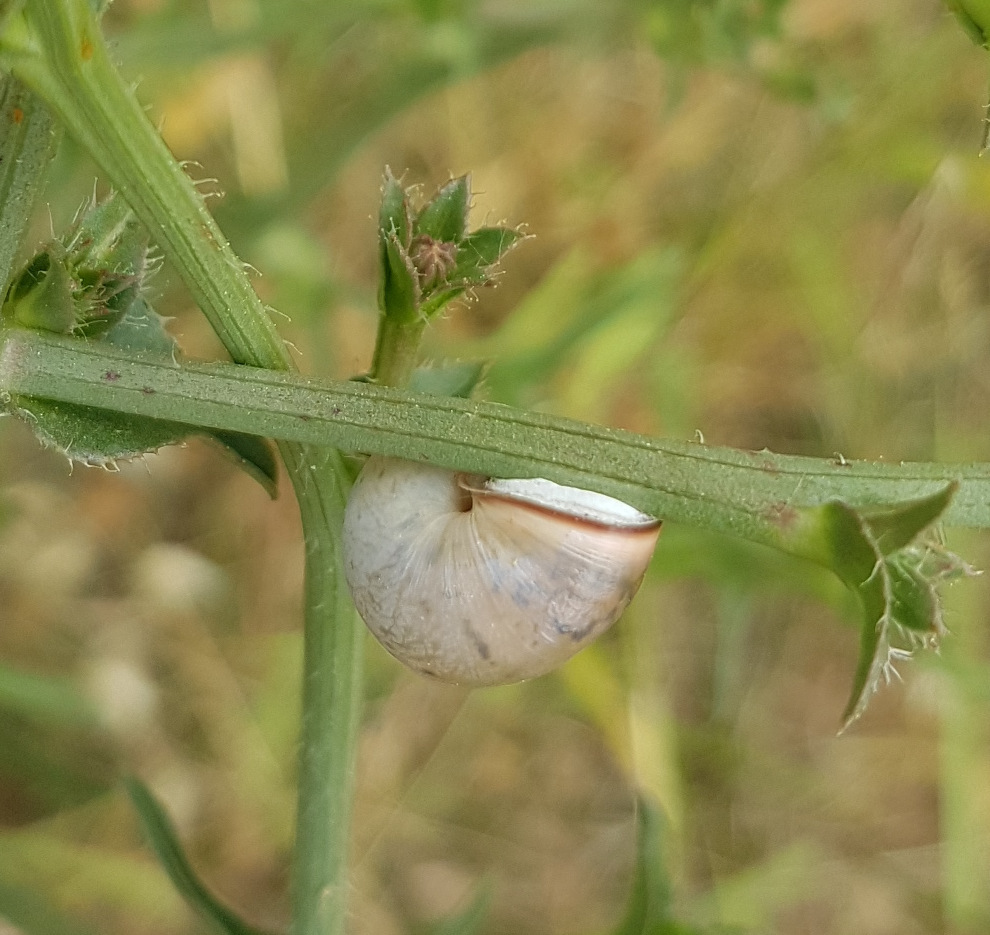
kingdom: Animalia
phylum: Mollusca
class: Gastropoda
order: Stylommatophora
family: Hygromiidae
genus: Monacha
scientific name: Monacha cartusiana
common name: Carthusian snail
